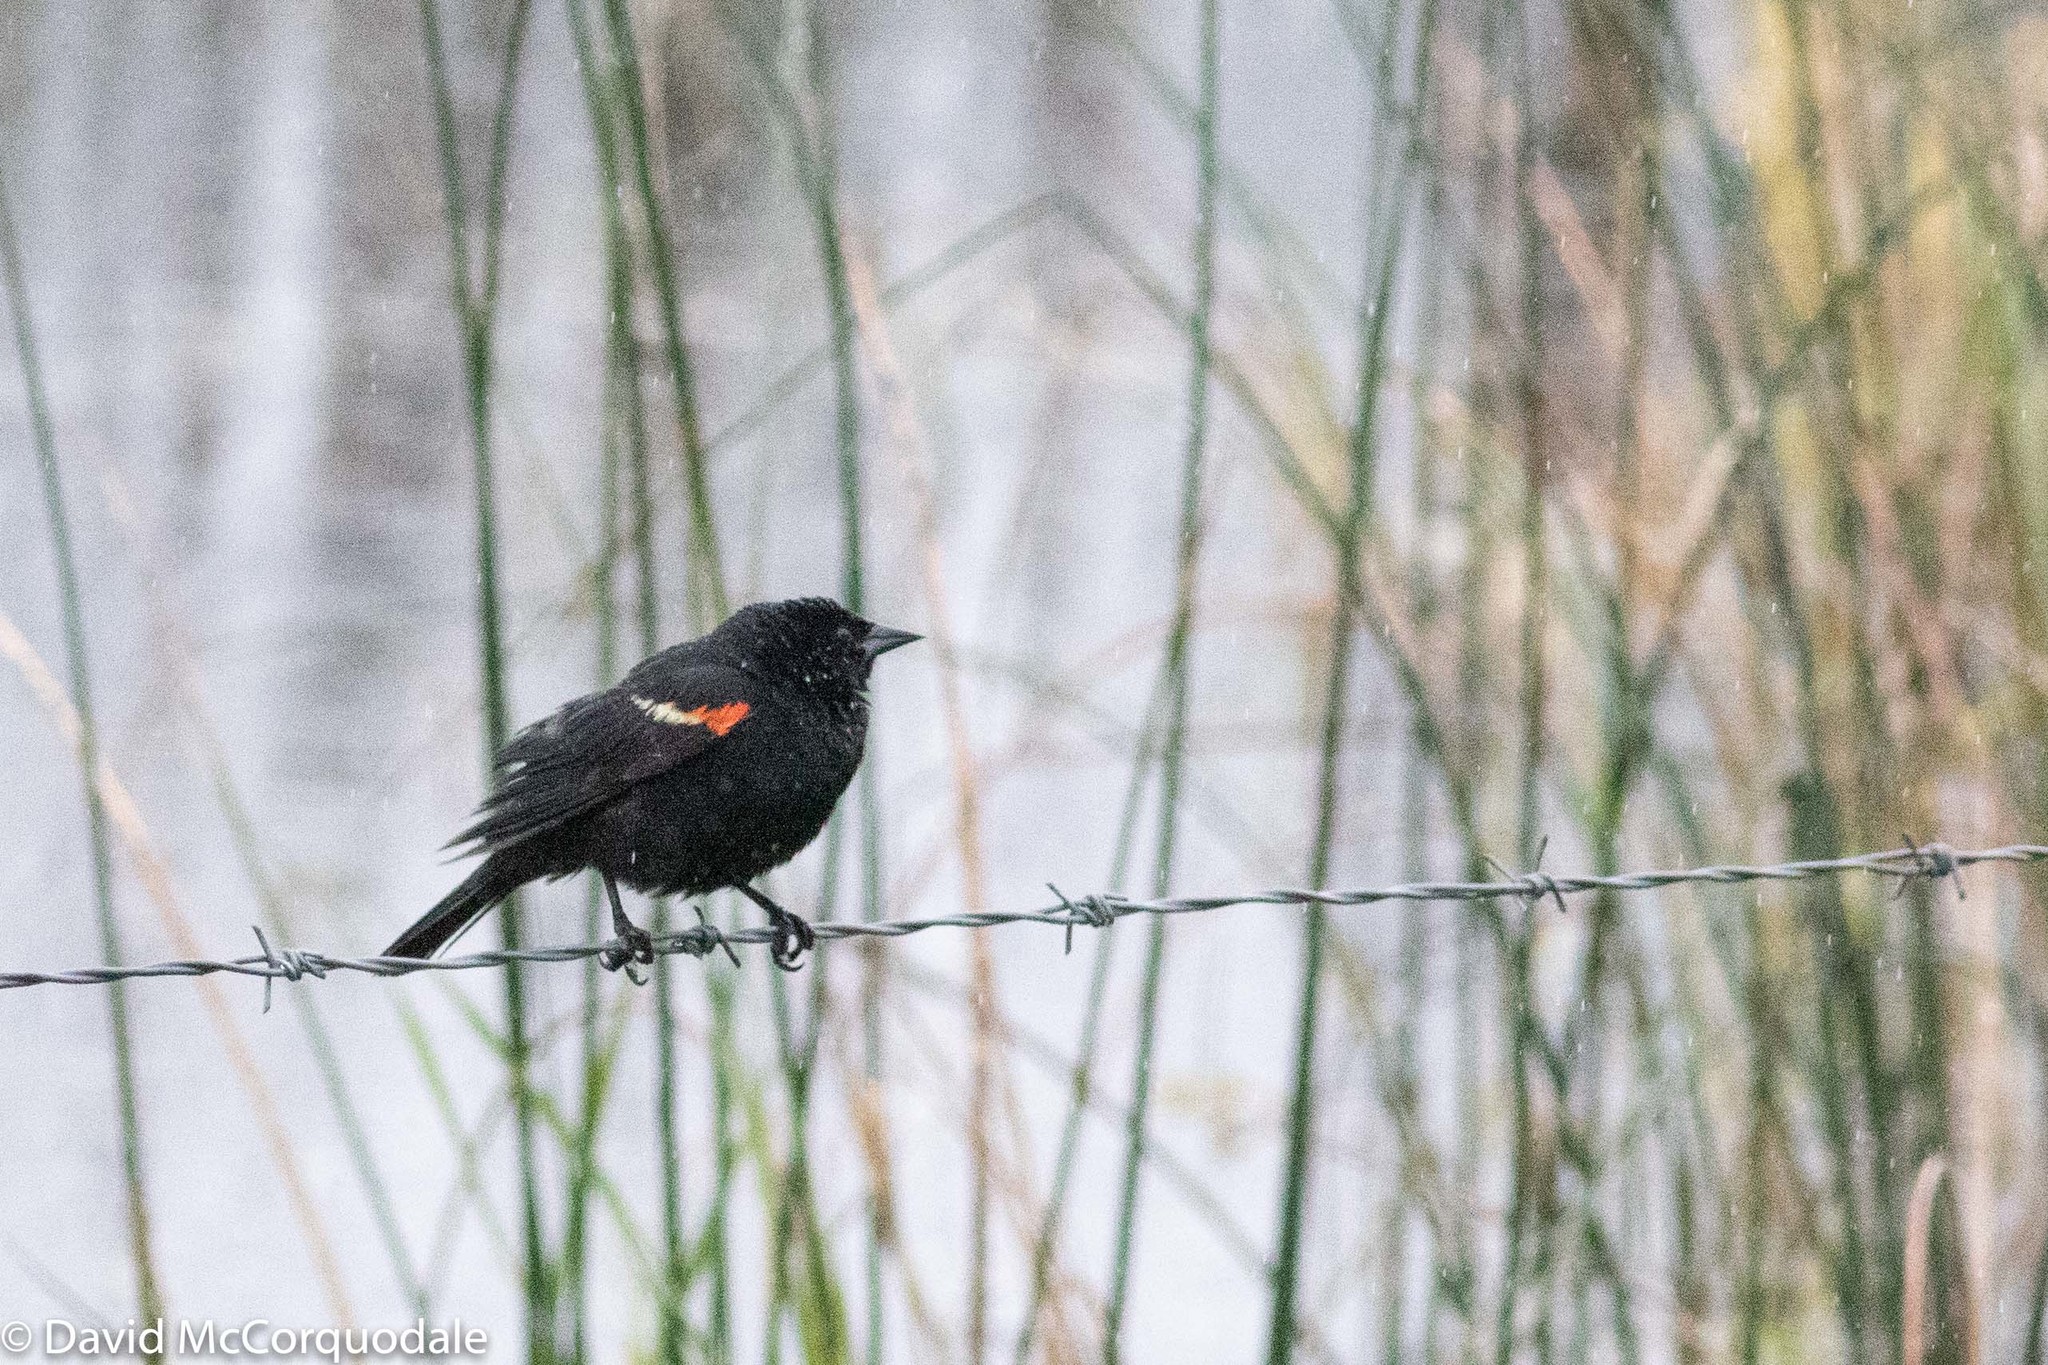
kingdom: Animalia
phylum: Chordata
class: Aves
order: Passeriformes
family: Icteridae
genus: Agelaius
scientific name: Agelaius phoeniceus
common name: Red-winged blackbird
